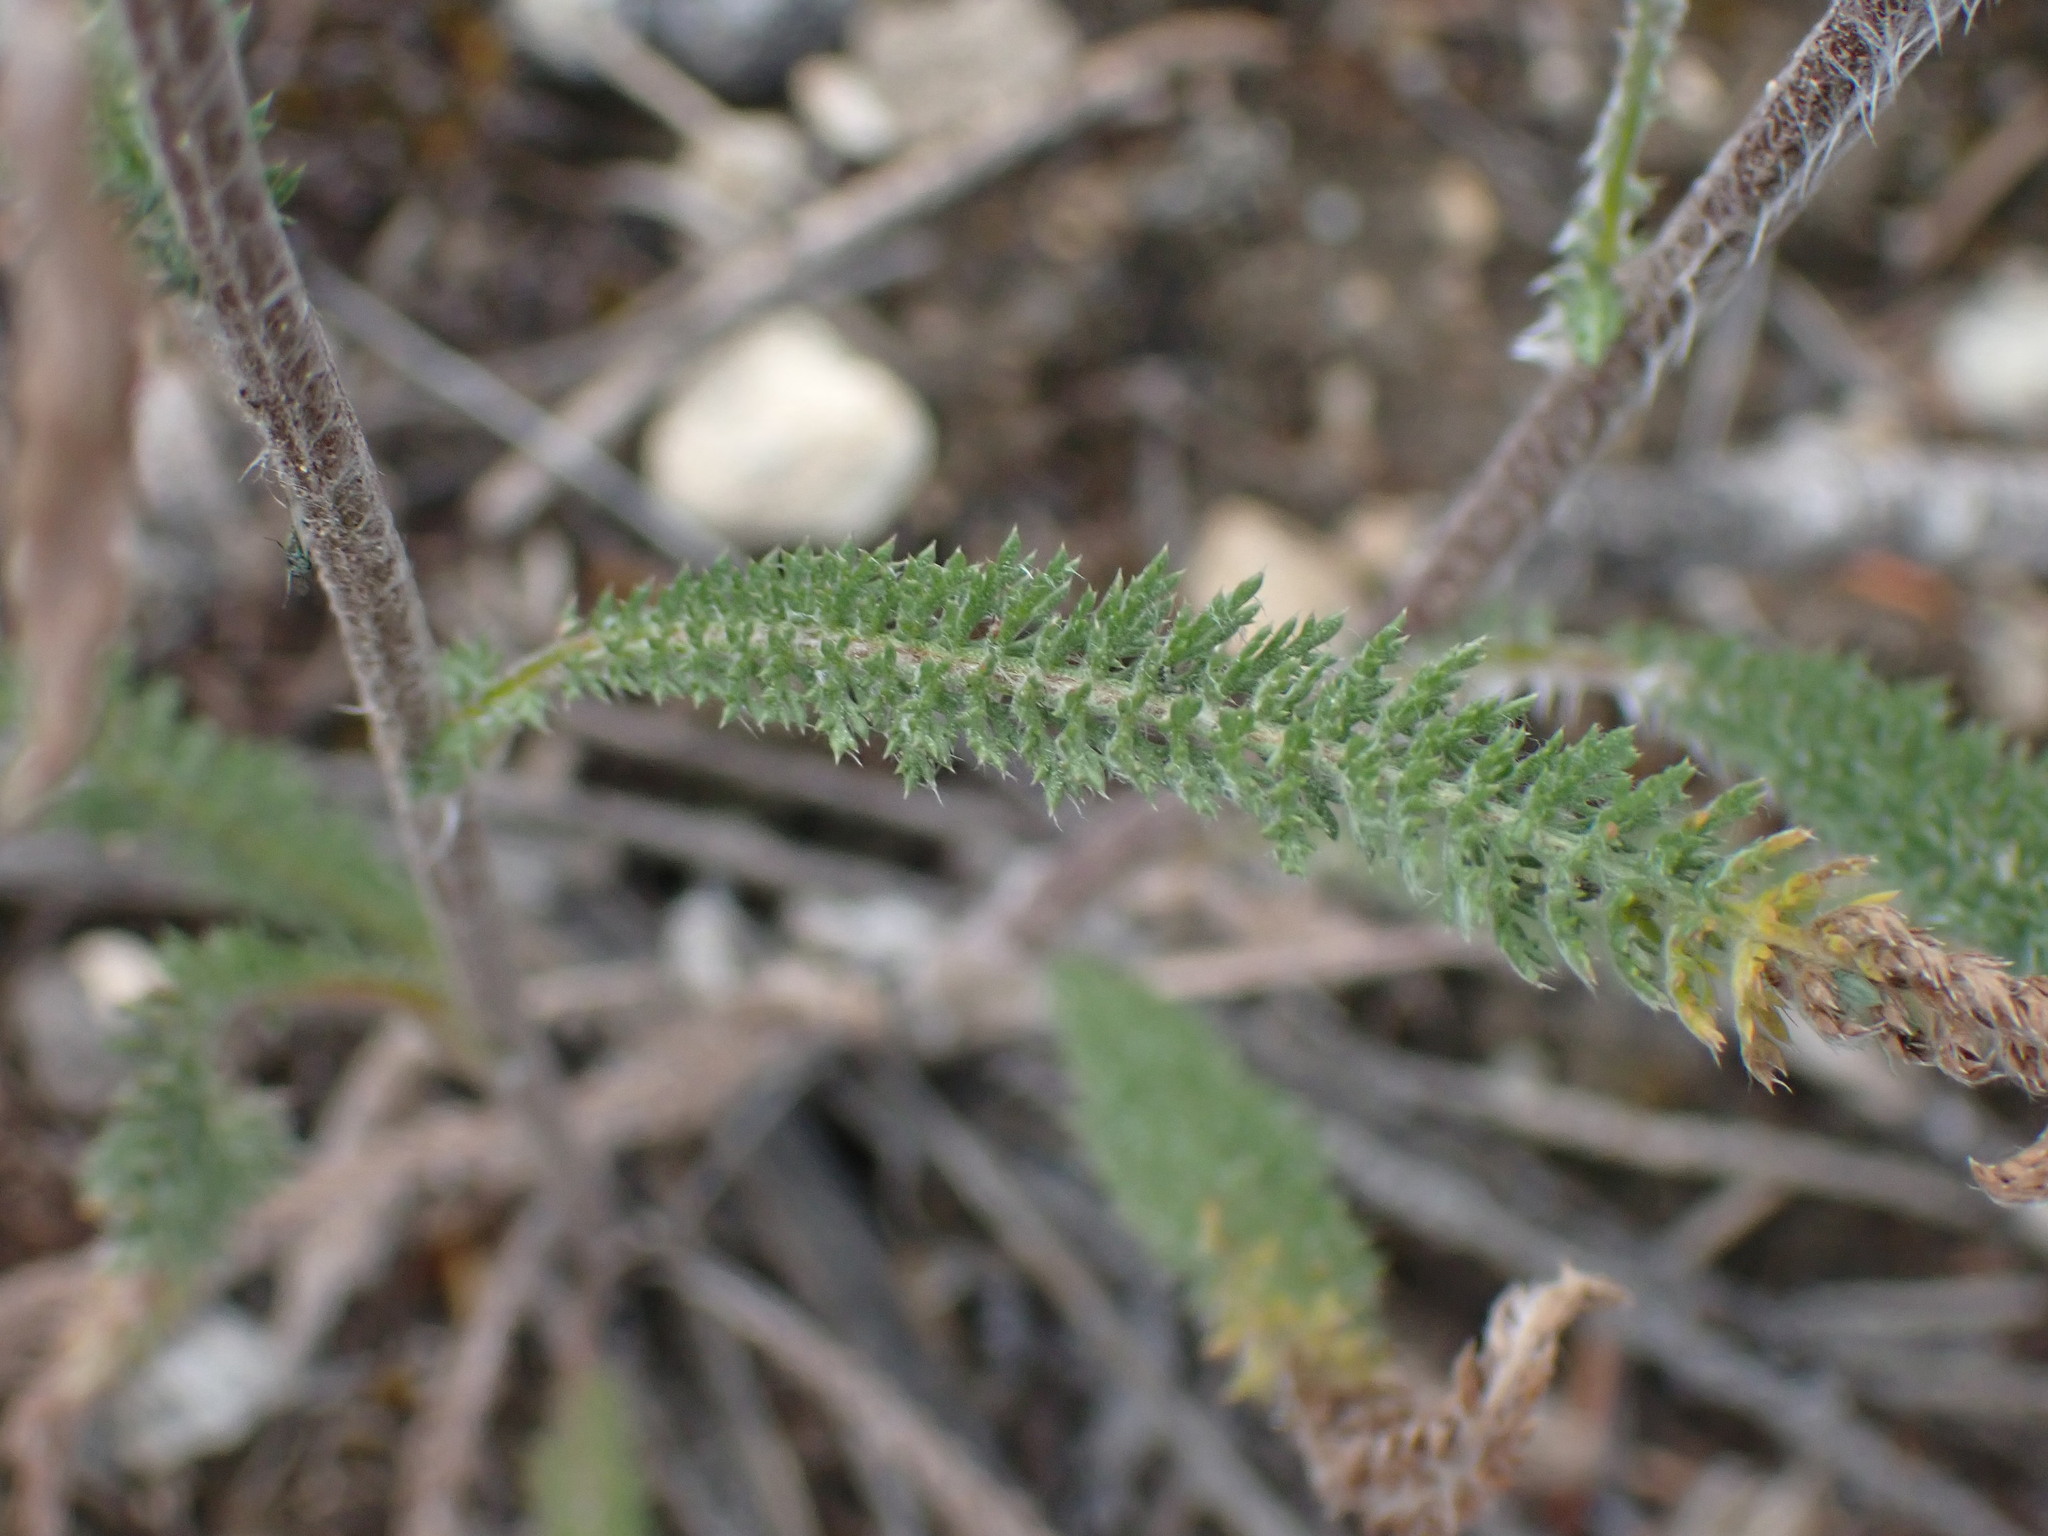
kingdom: Plantae
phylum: Tracheophyta
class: Magnoliopsida
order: Asterales
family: Asteraceae
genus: Achillea
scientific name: Achillea millefolium
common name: Yarrow
